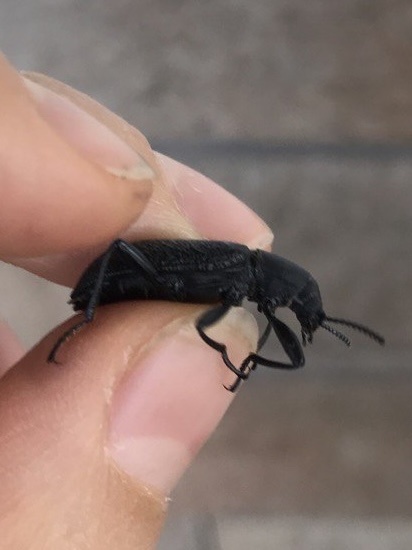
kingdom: Animalia
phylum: Arthropoda
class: Insecta
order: Coleoptera
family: Tenebrionidae
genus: Upis
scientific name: Upis ceramboides
